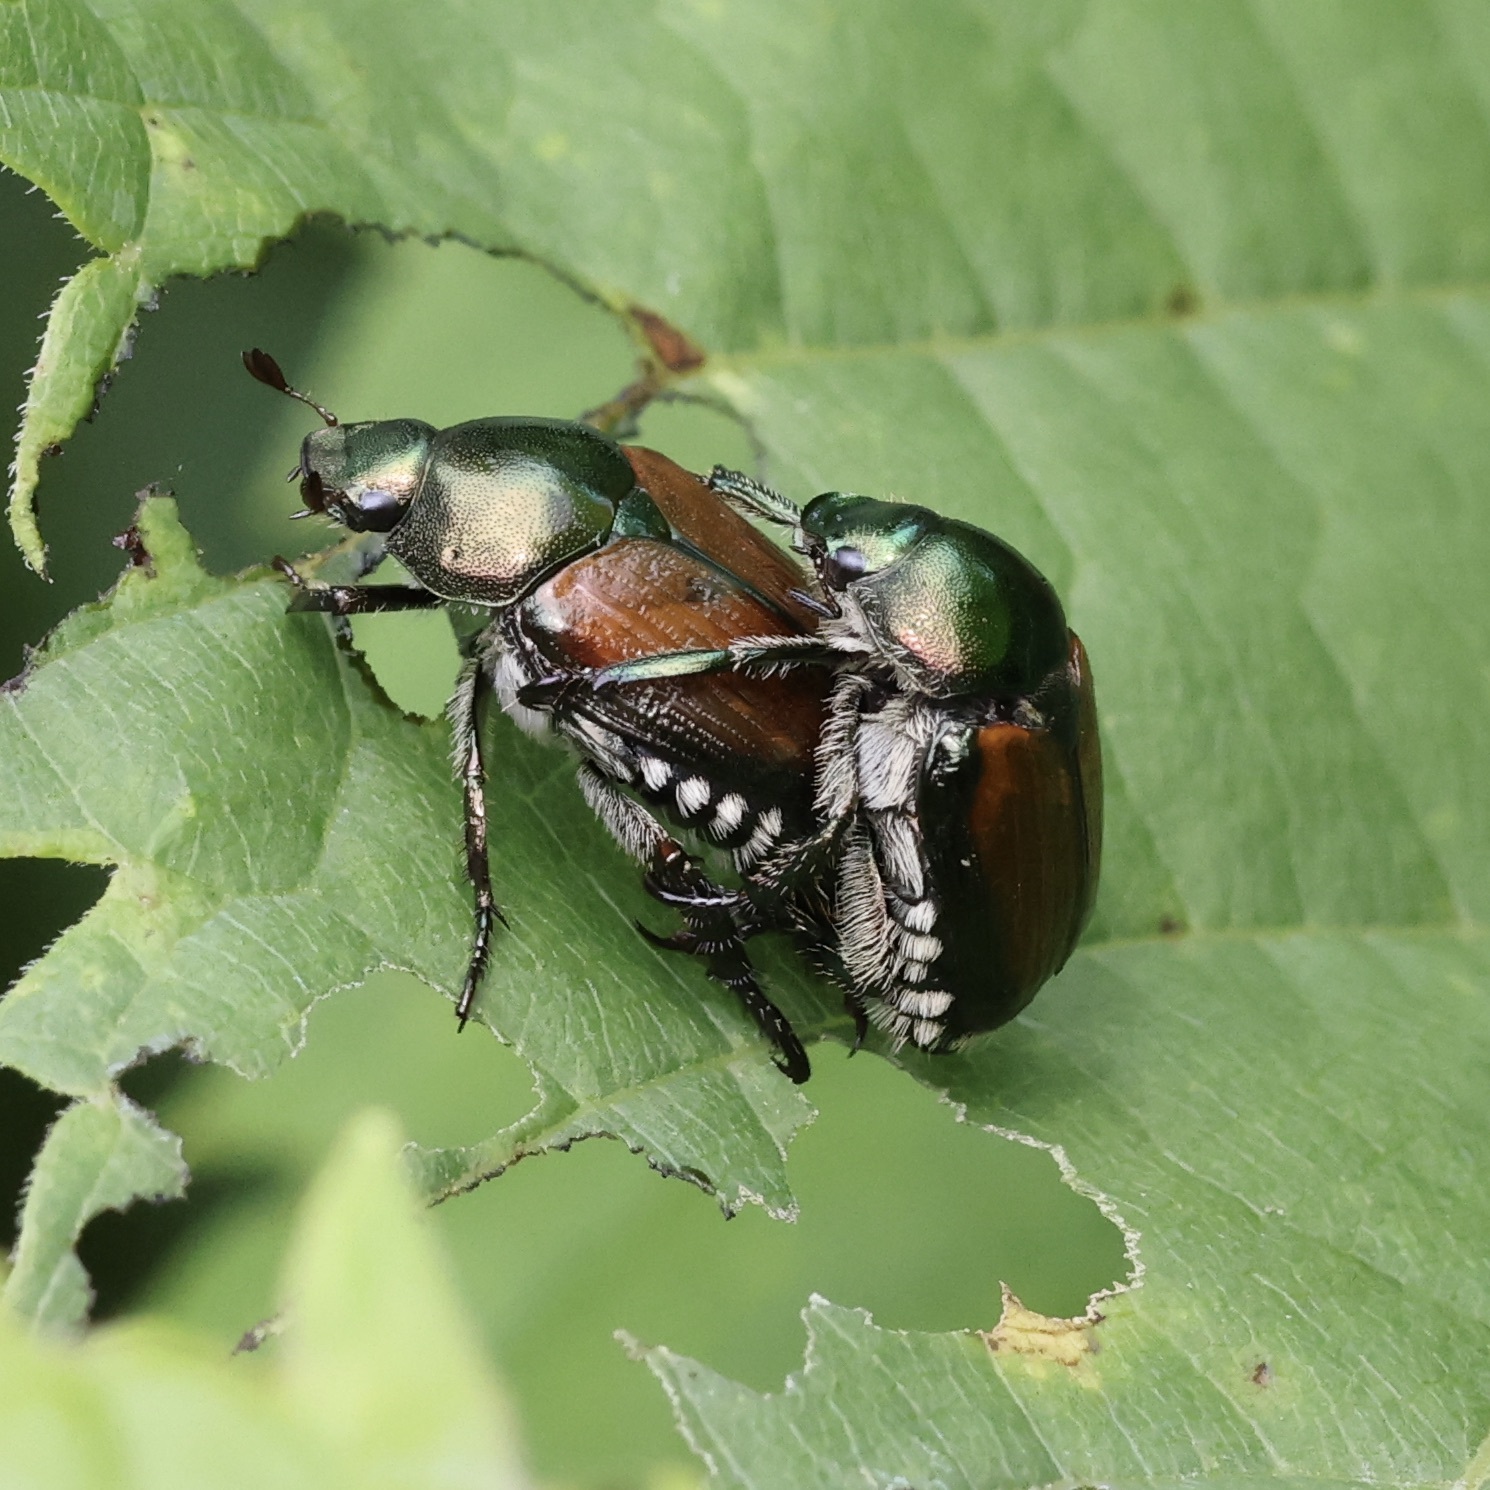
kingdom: Animalia
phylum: Arthropoda
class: Insecta
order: Coleoptera
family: Scarabaeidae
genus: Popillia
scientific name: Popillia japonica
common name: Japanese beetle
